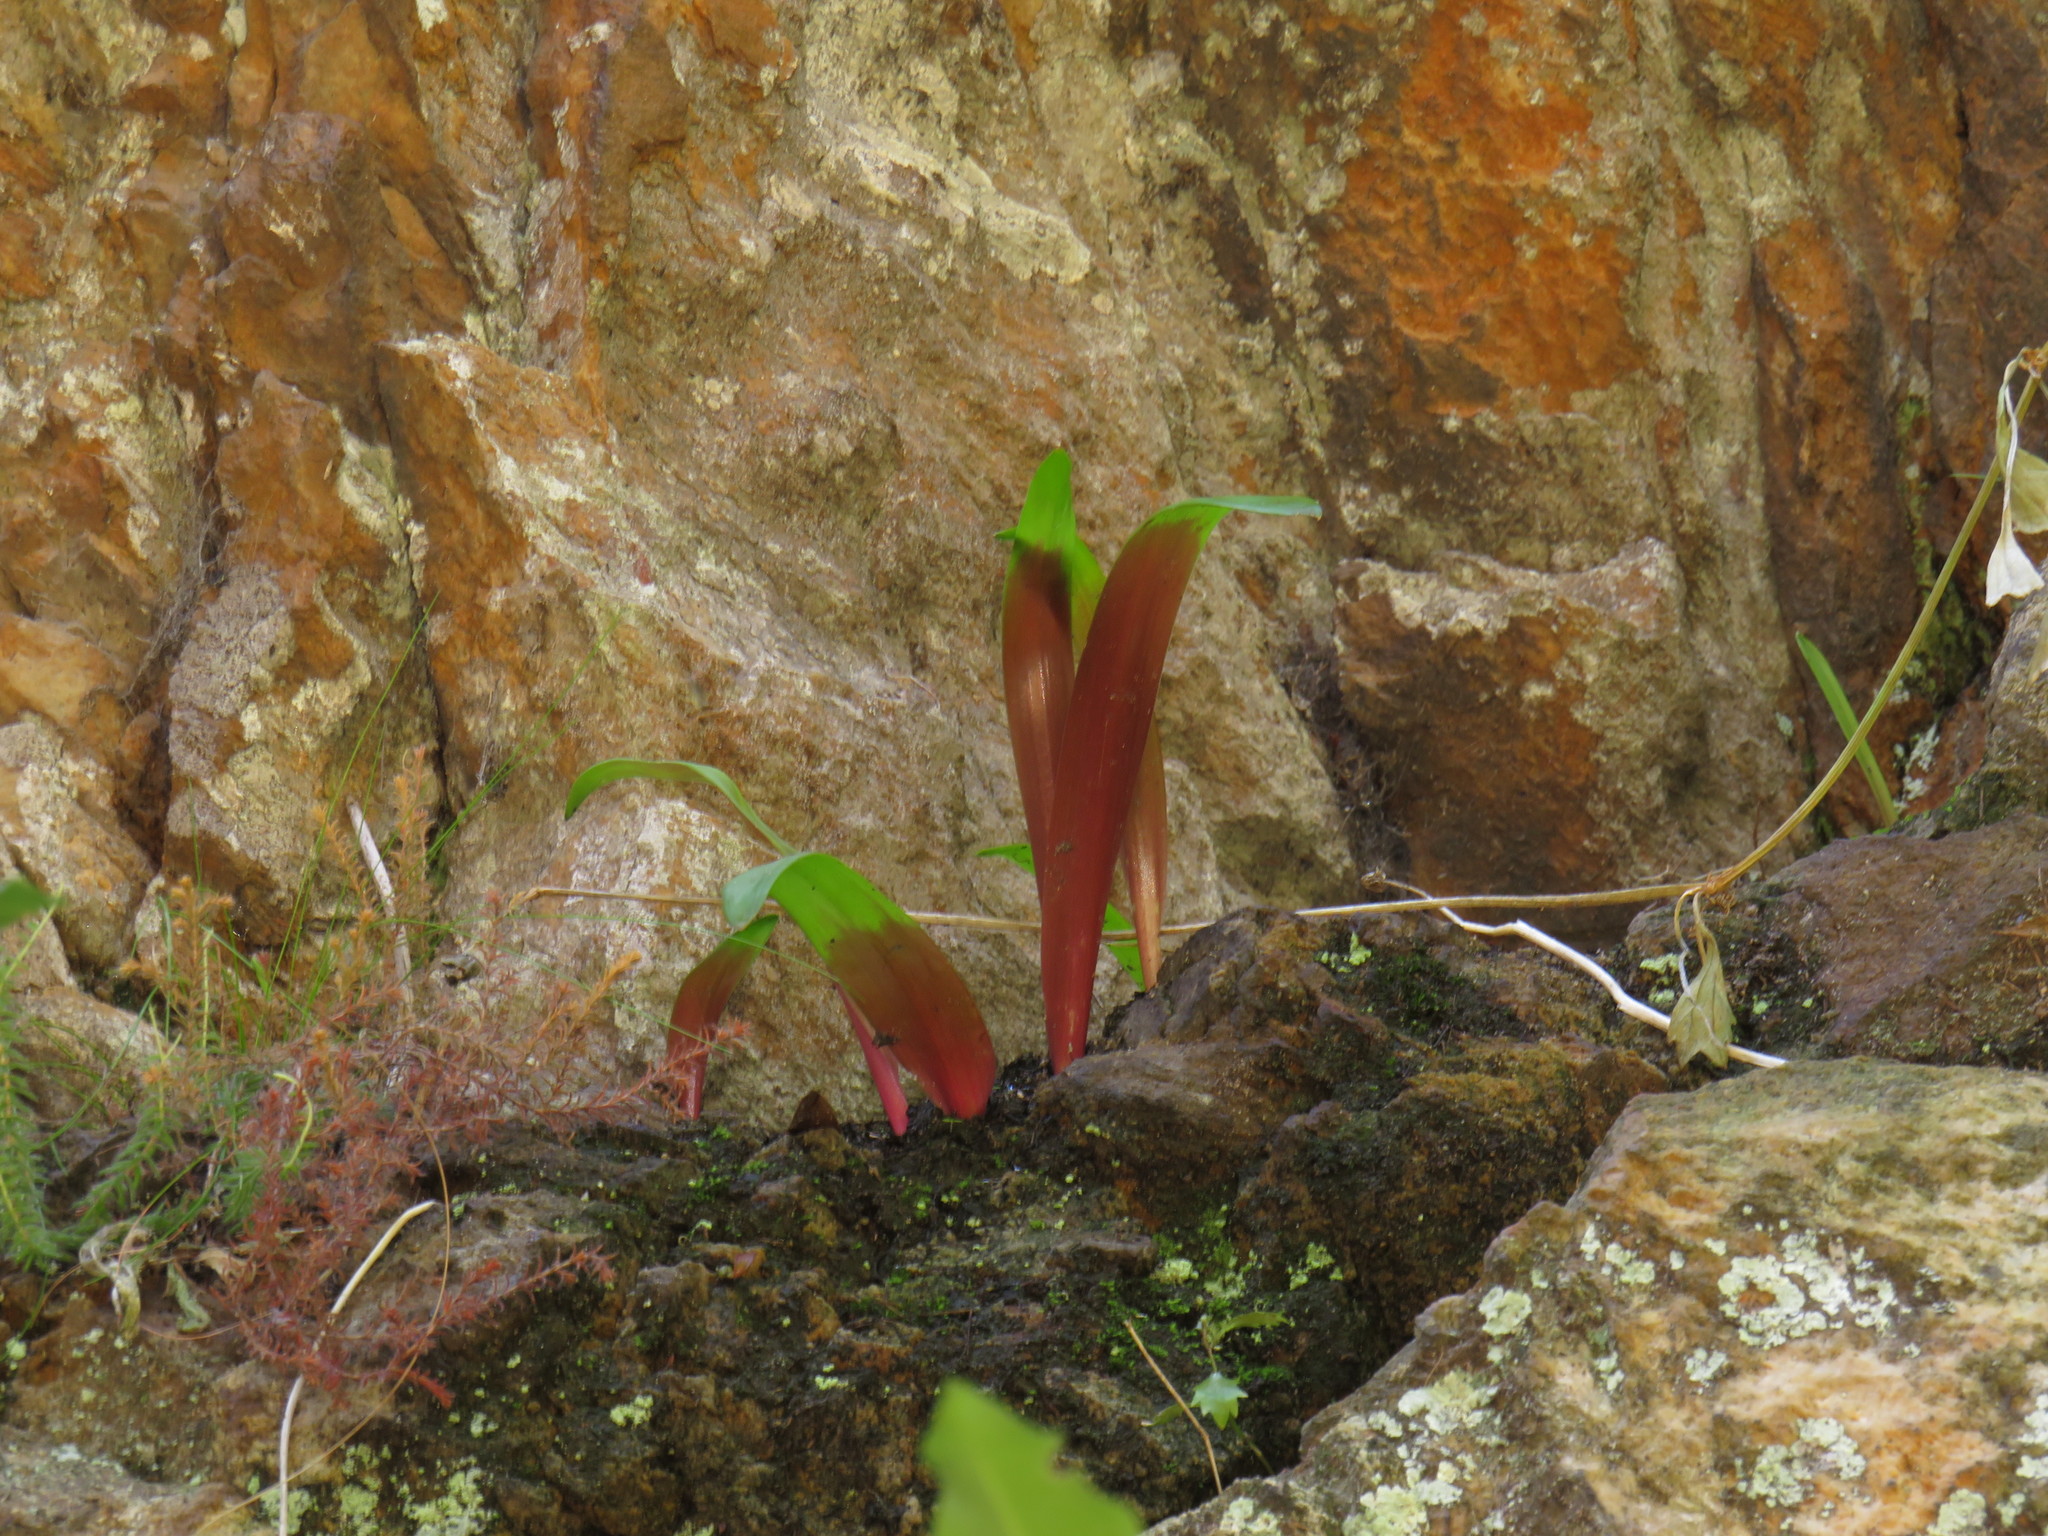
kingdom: Plantae
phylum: Tracheophyta
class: Liliopsida
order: Asparagales
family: Asparagaceae
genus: Lachenalia
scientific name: Lachenalia peersii
